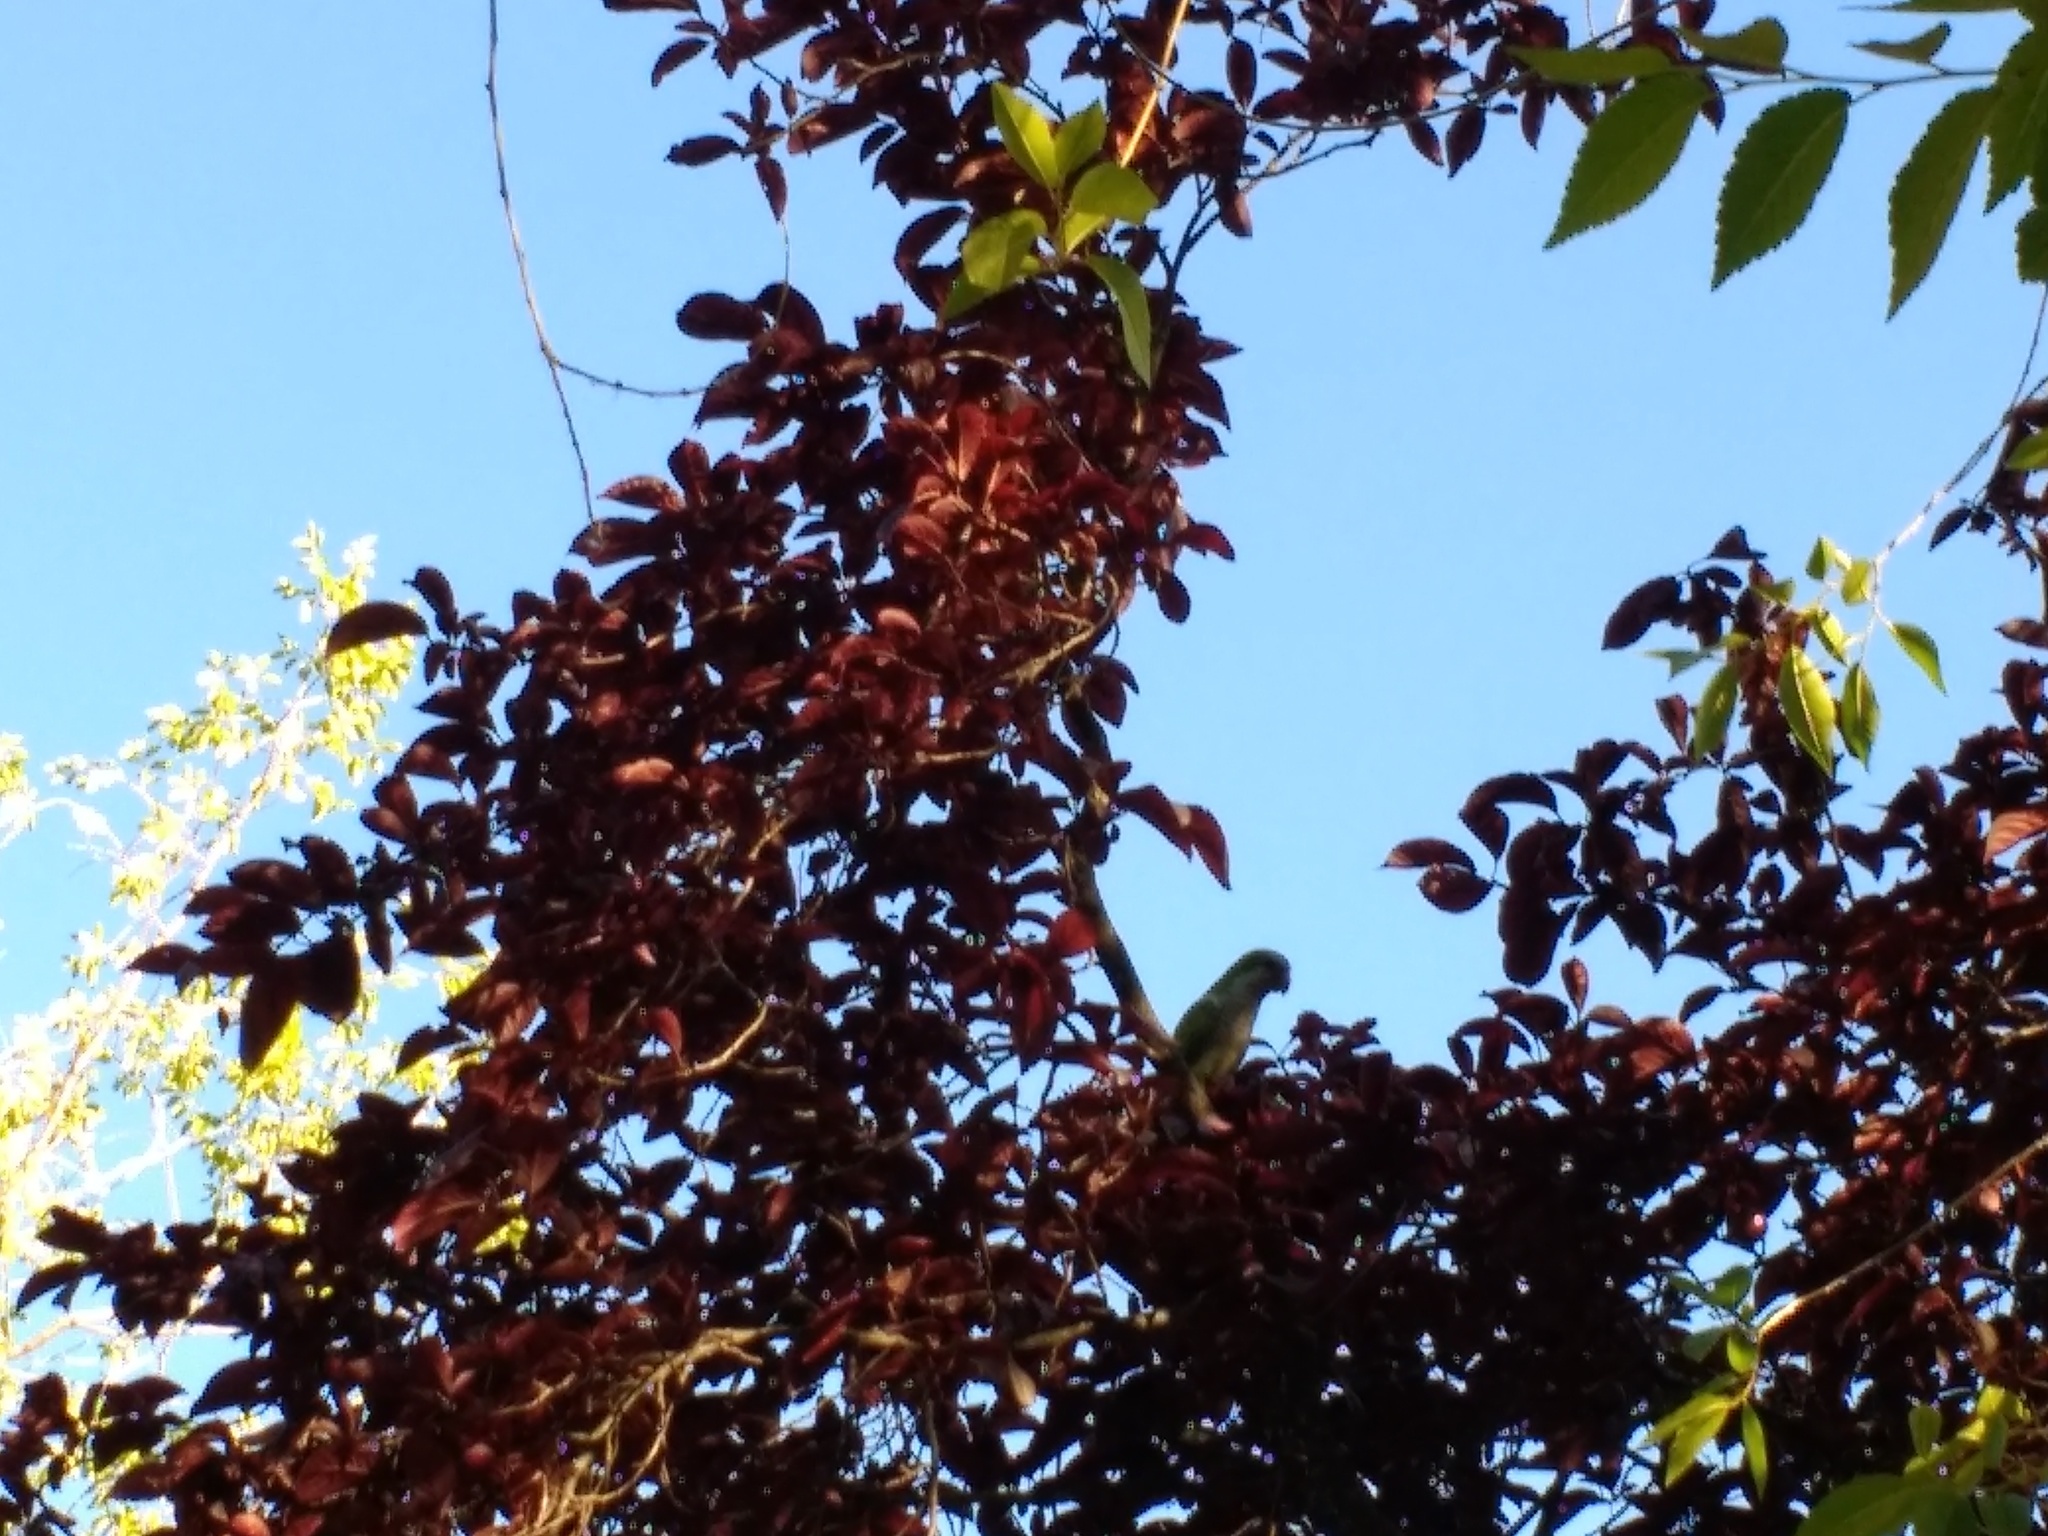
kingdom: Animalia
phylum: Chordata
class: Aves
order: Psittaciformes
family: Psittacidae
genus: Myiopsitta
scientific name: Myiopsitta monachus
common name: Monk parakeet
